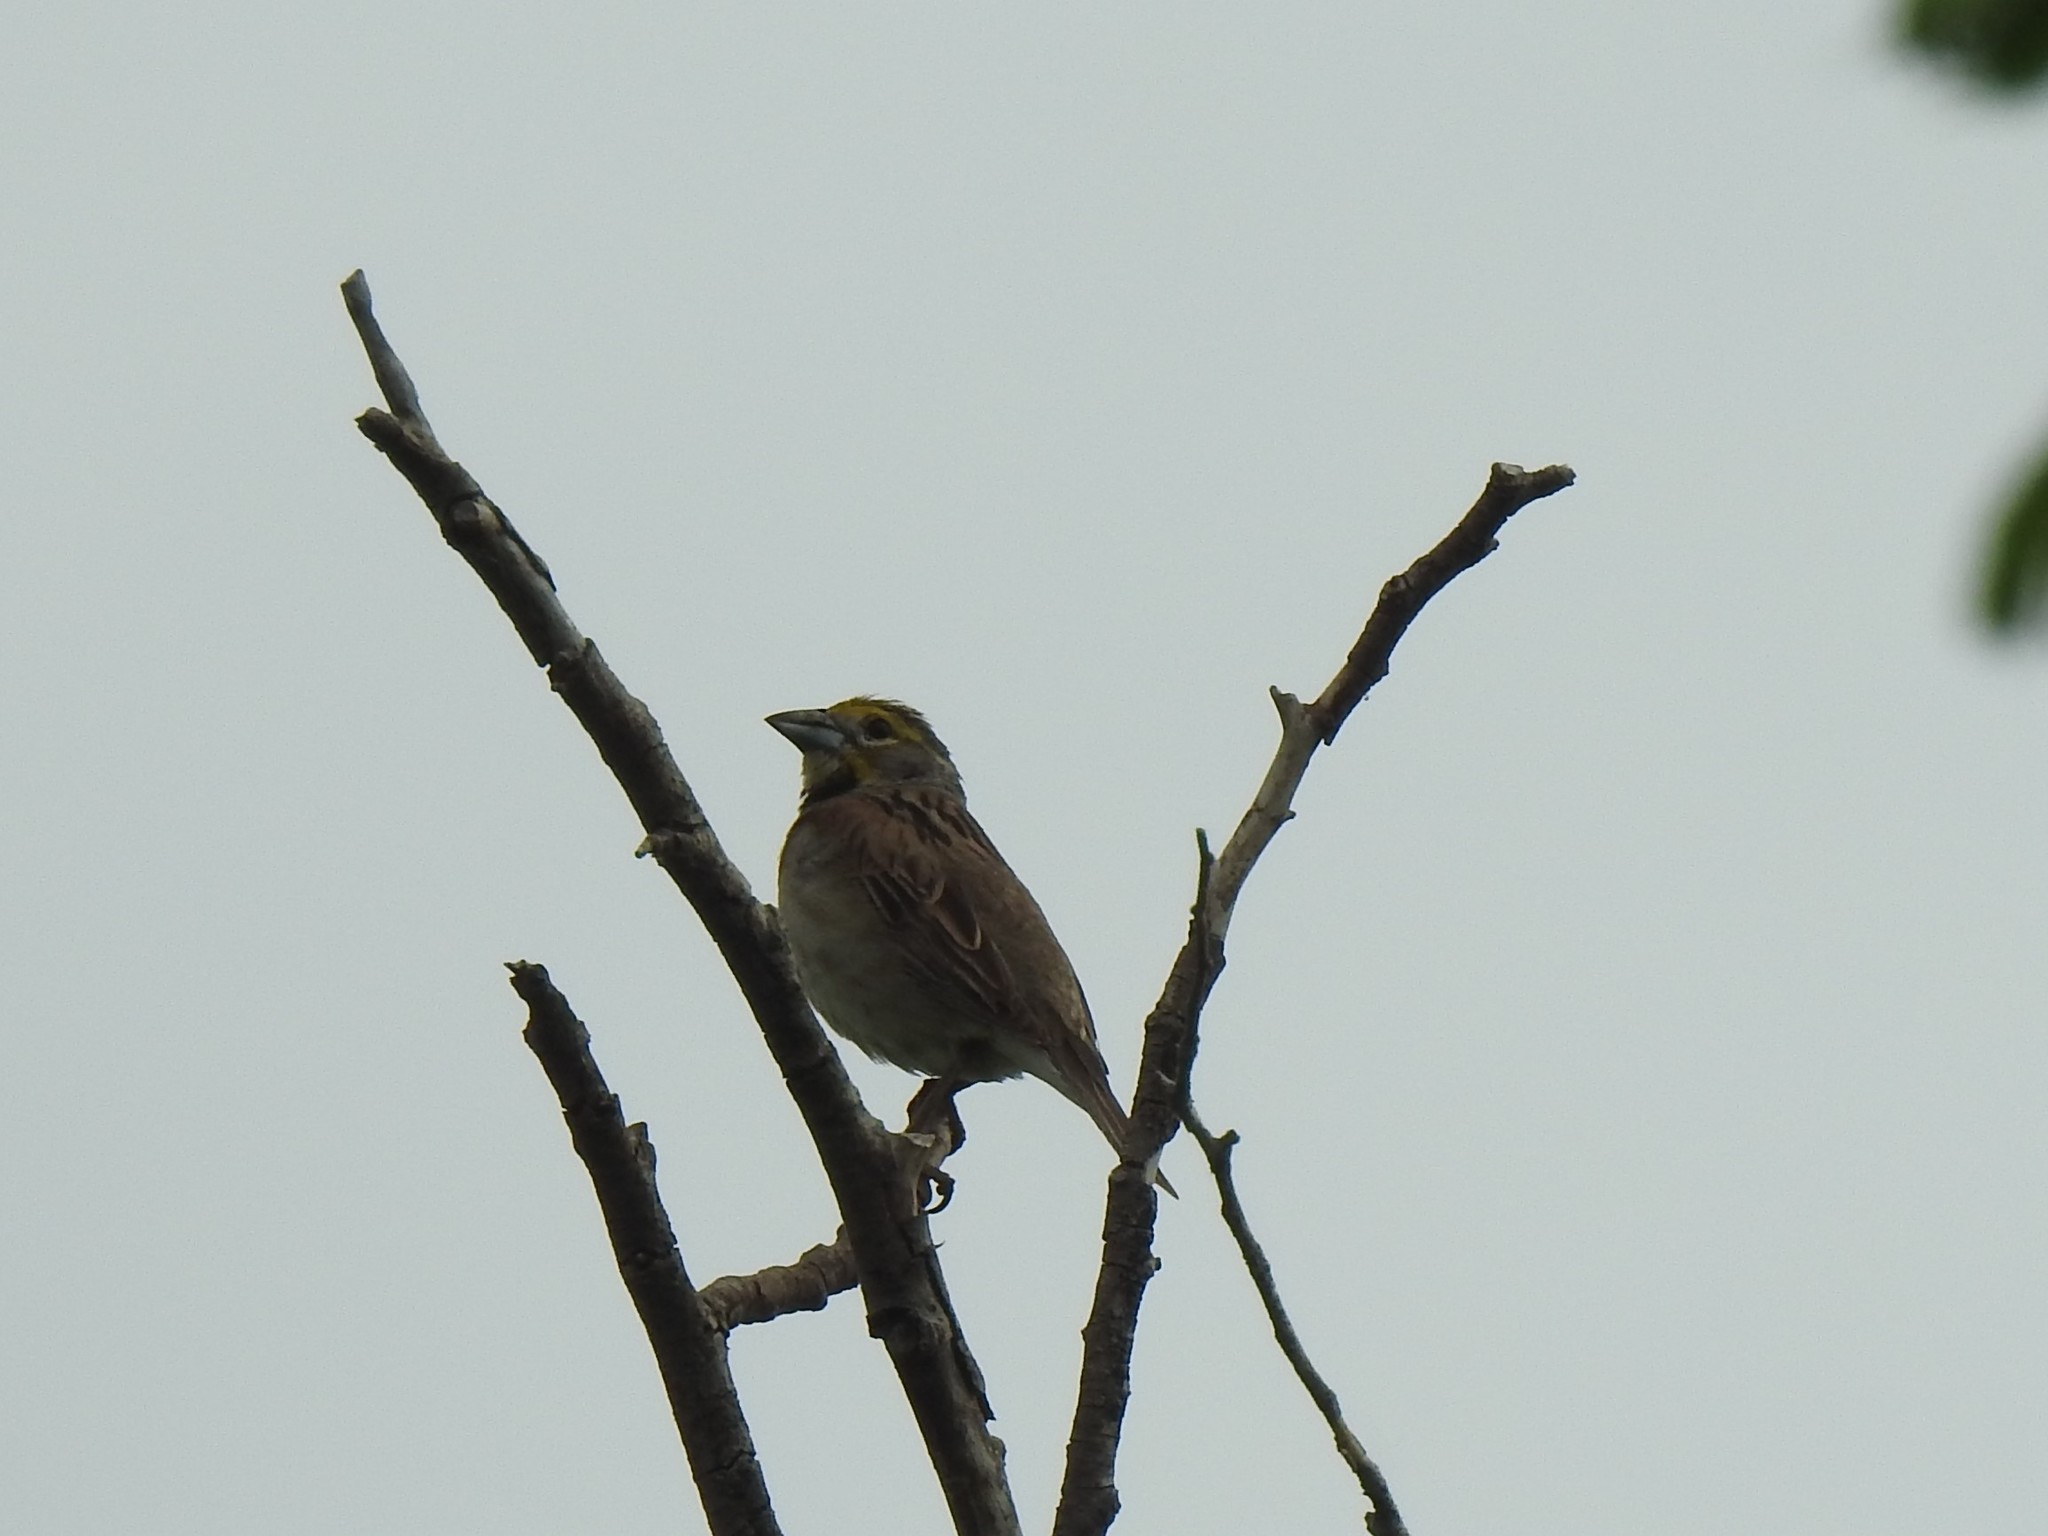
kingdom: Animalia
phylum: Chordata
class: Aves
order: Passeriformes
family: Cardinalidae
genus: Spiza
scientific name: Spiza americana
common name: Dickcissel
